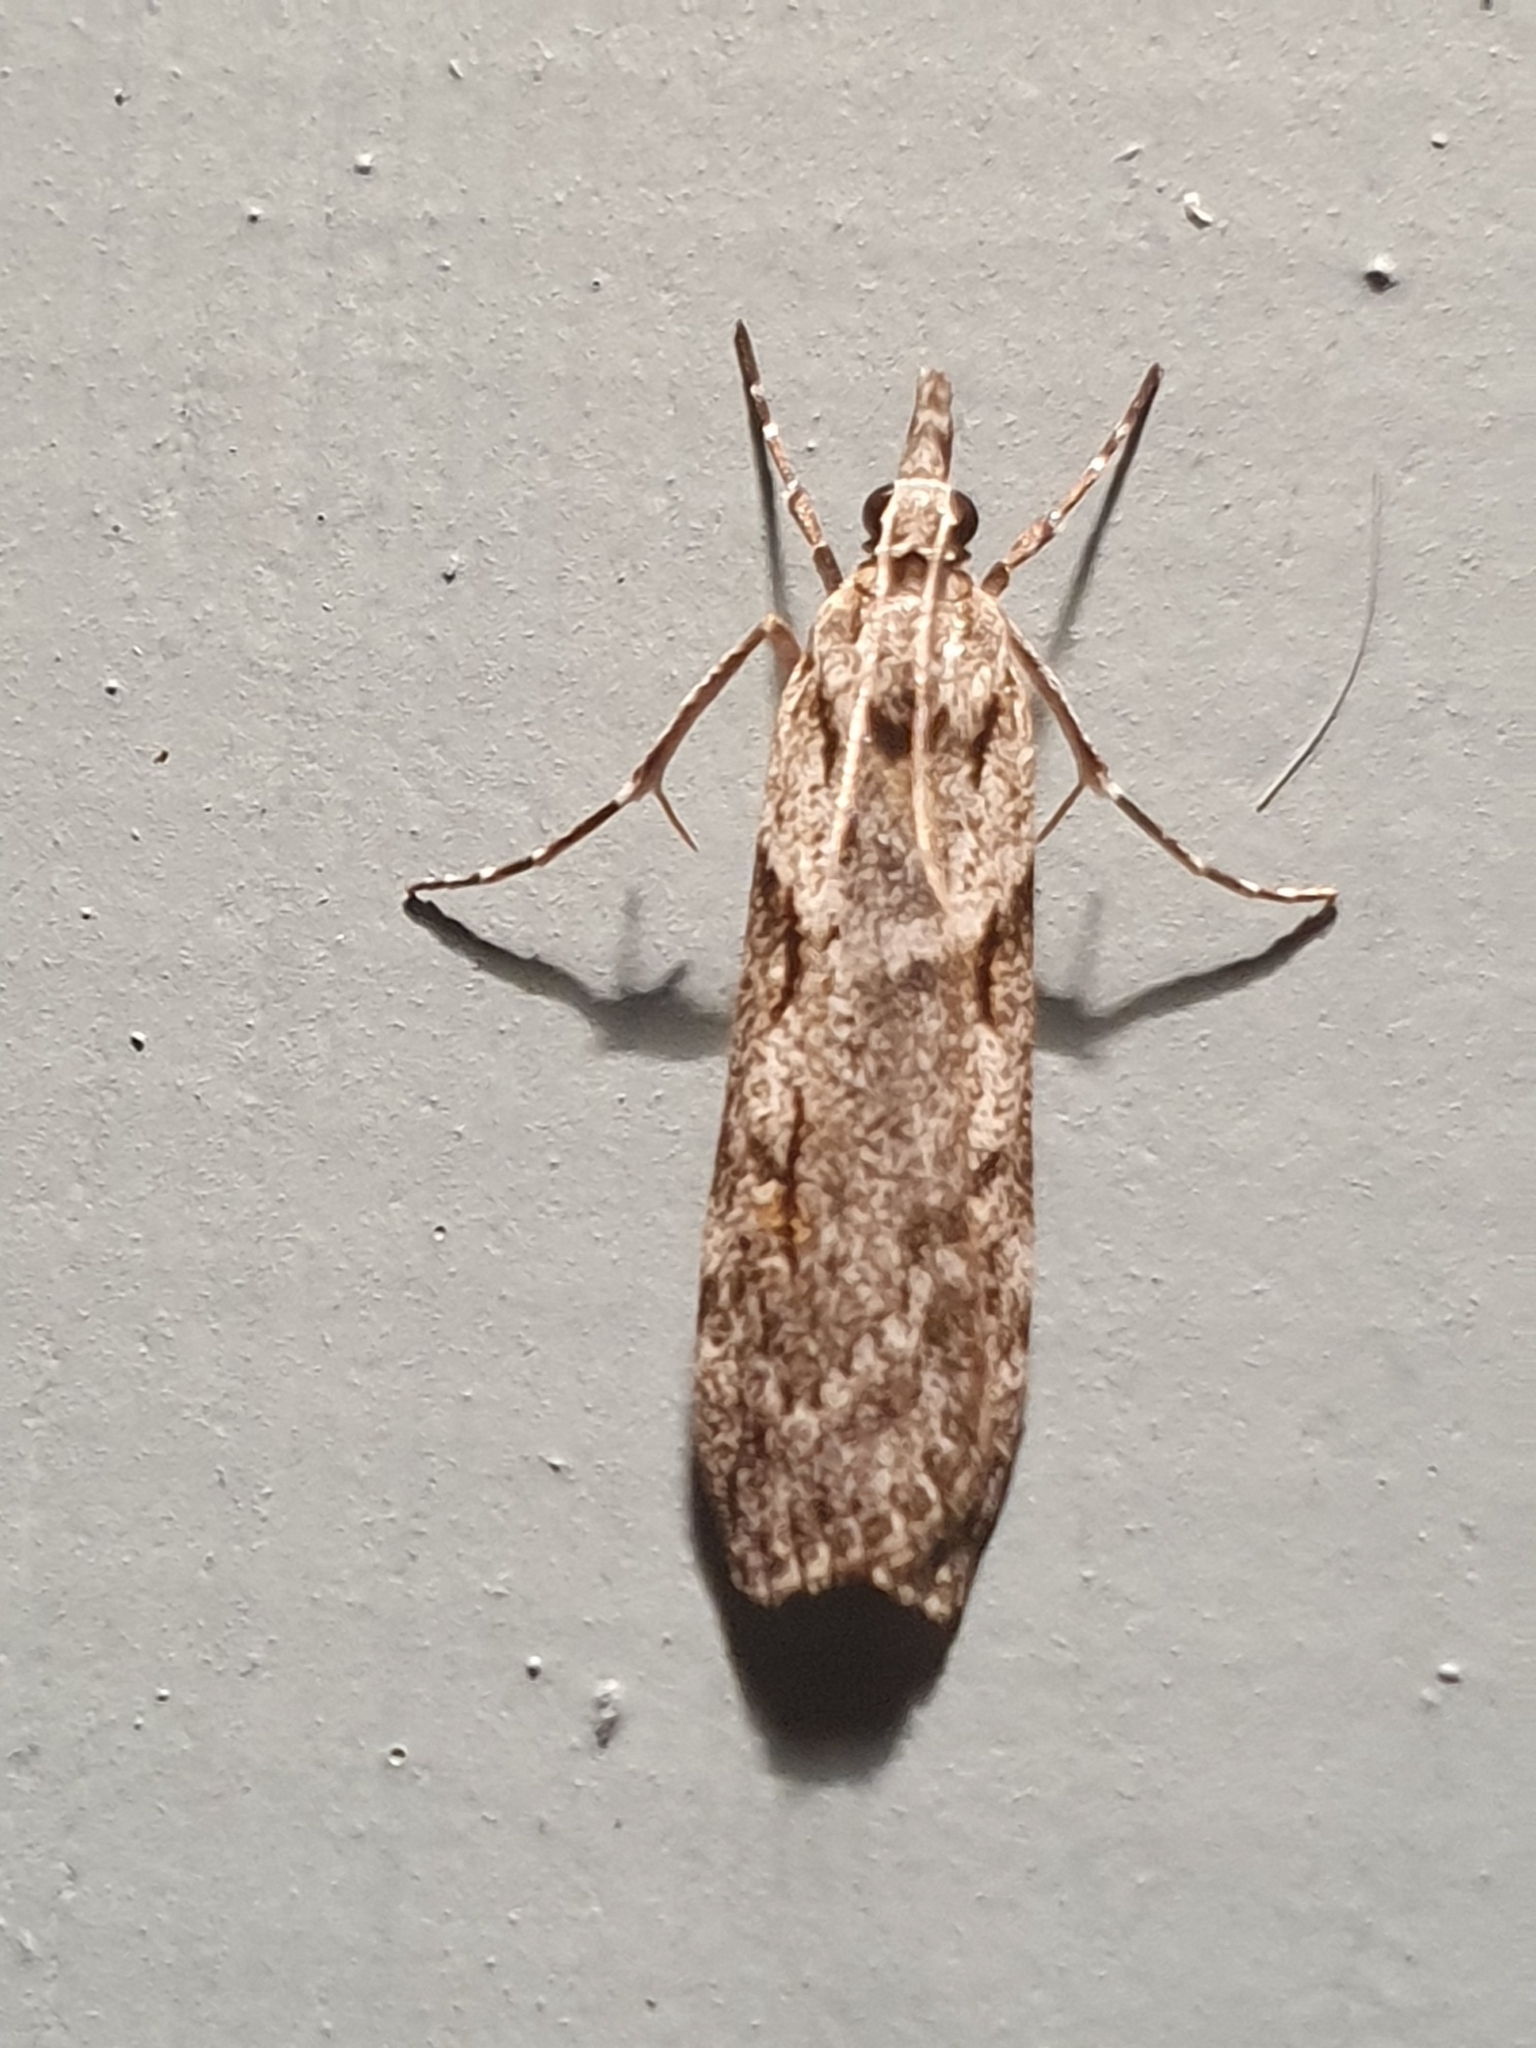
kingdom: Animalia
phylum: Arthropoda
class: Insecta
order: Lepidoptera
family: Crambidae
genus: Scoparia
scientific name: Scoparia halopis
